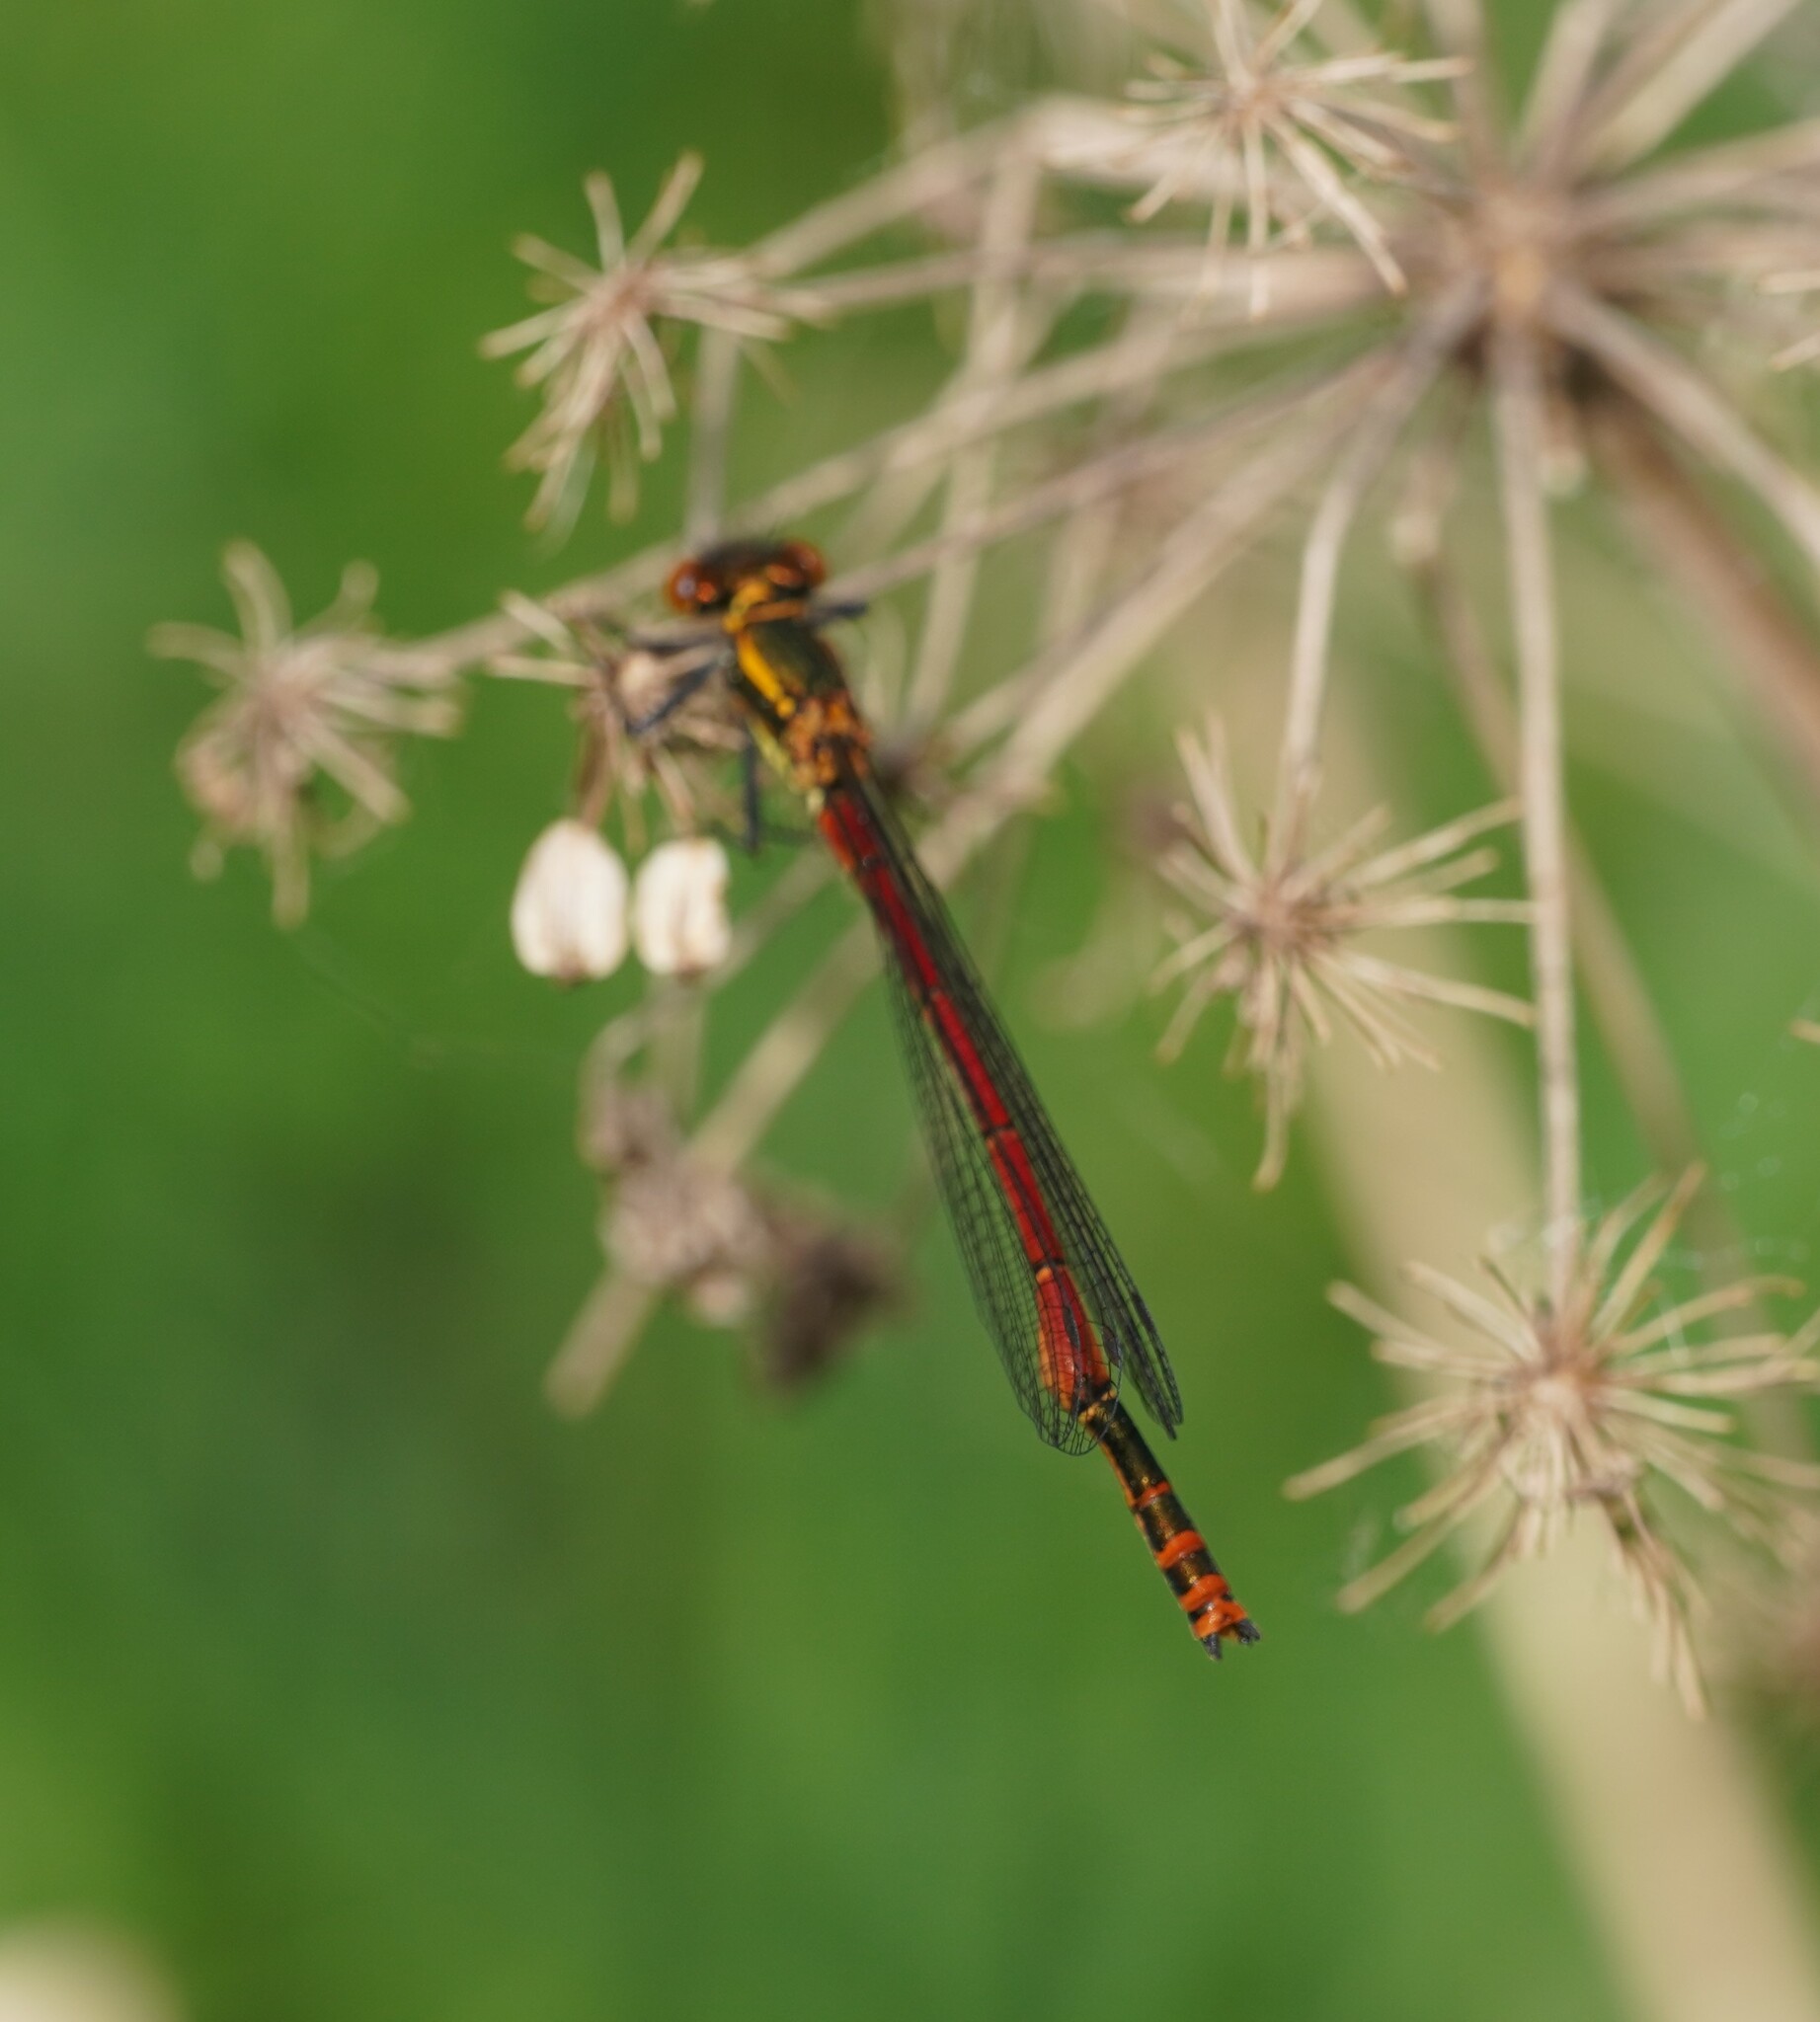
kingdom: Animalia
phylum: Arthropoda
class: Insecta
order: Odonata
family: Coenagrionidae
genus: Pyrrhosoma
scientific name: Pyrrhosoma nymphula
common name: Large red damsel
